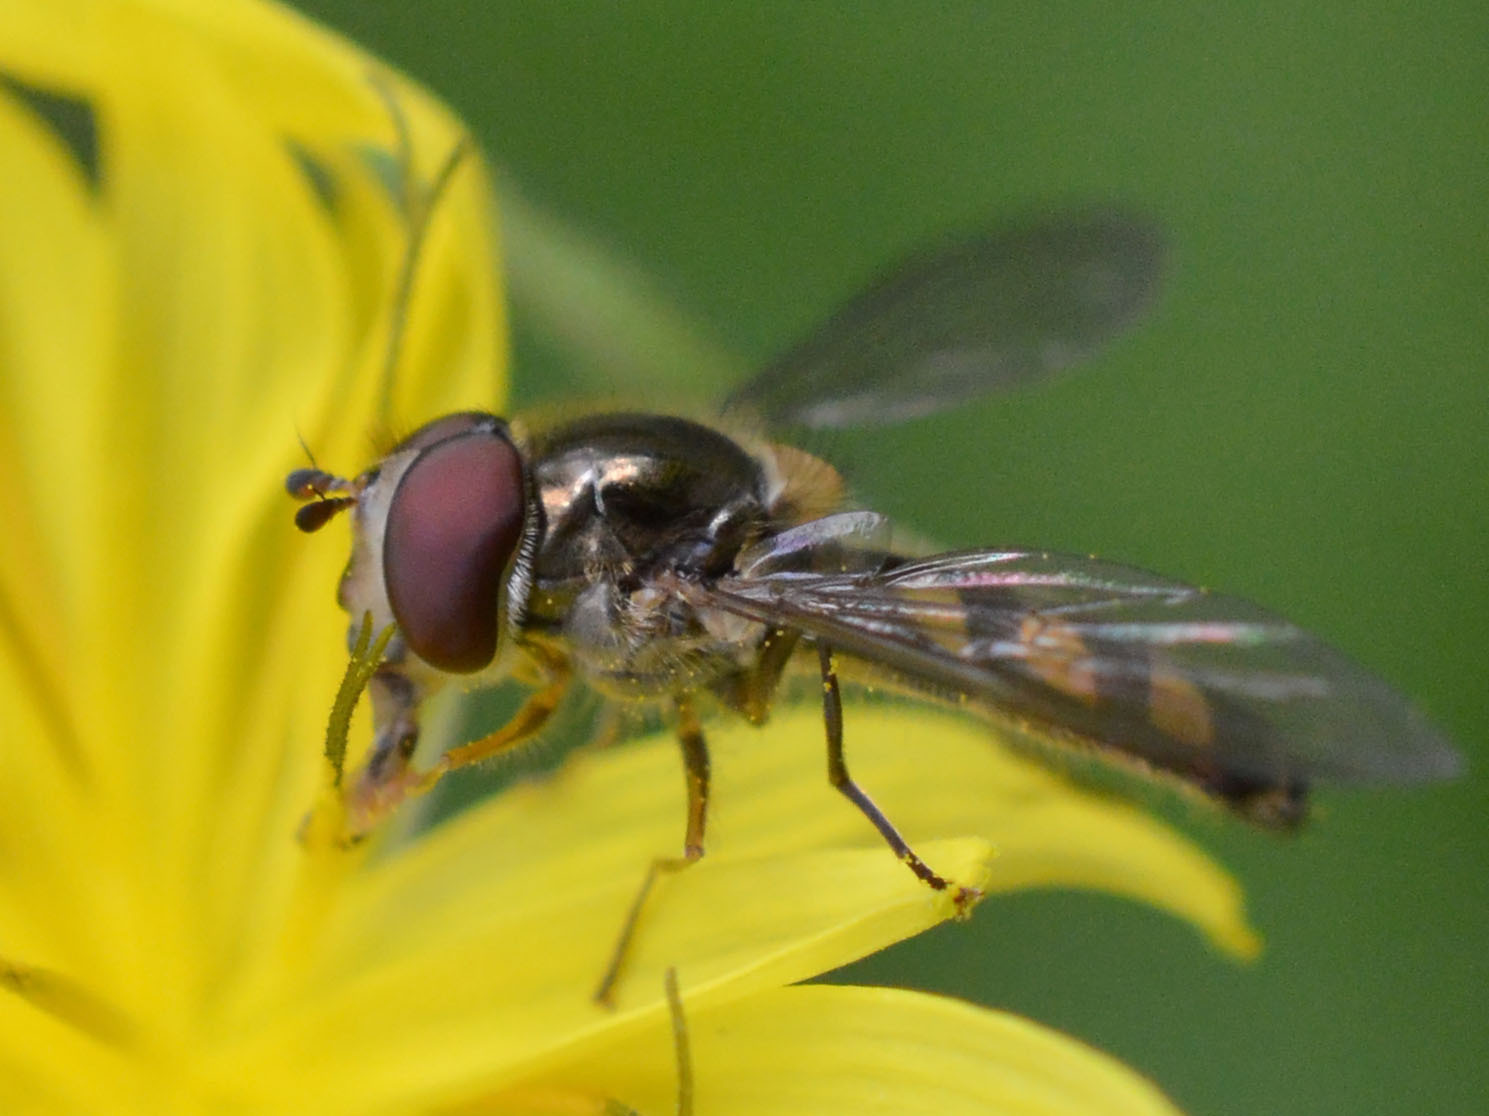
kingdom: Animalia
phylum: Arthropoda
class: Insecta
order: Diptera
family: Syrphidae
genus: Meliscaeva
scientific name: Meliscaeva auricollis
